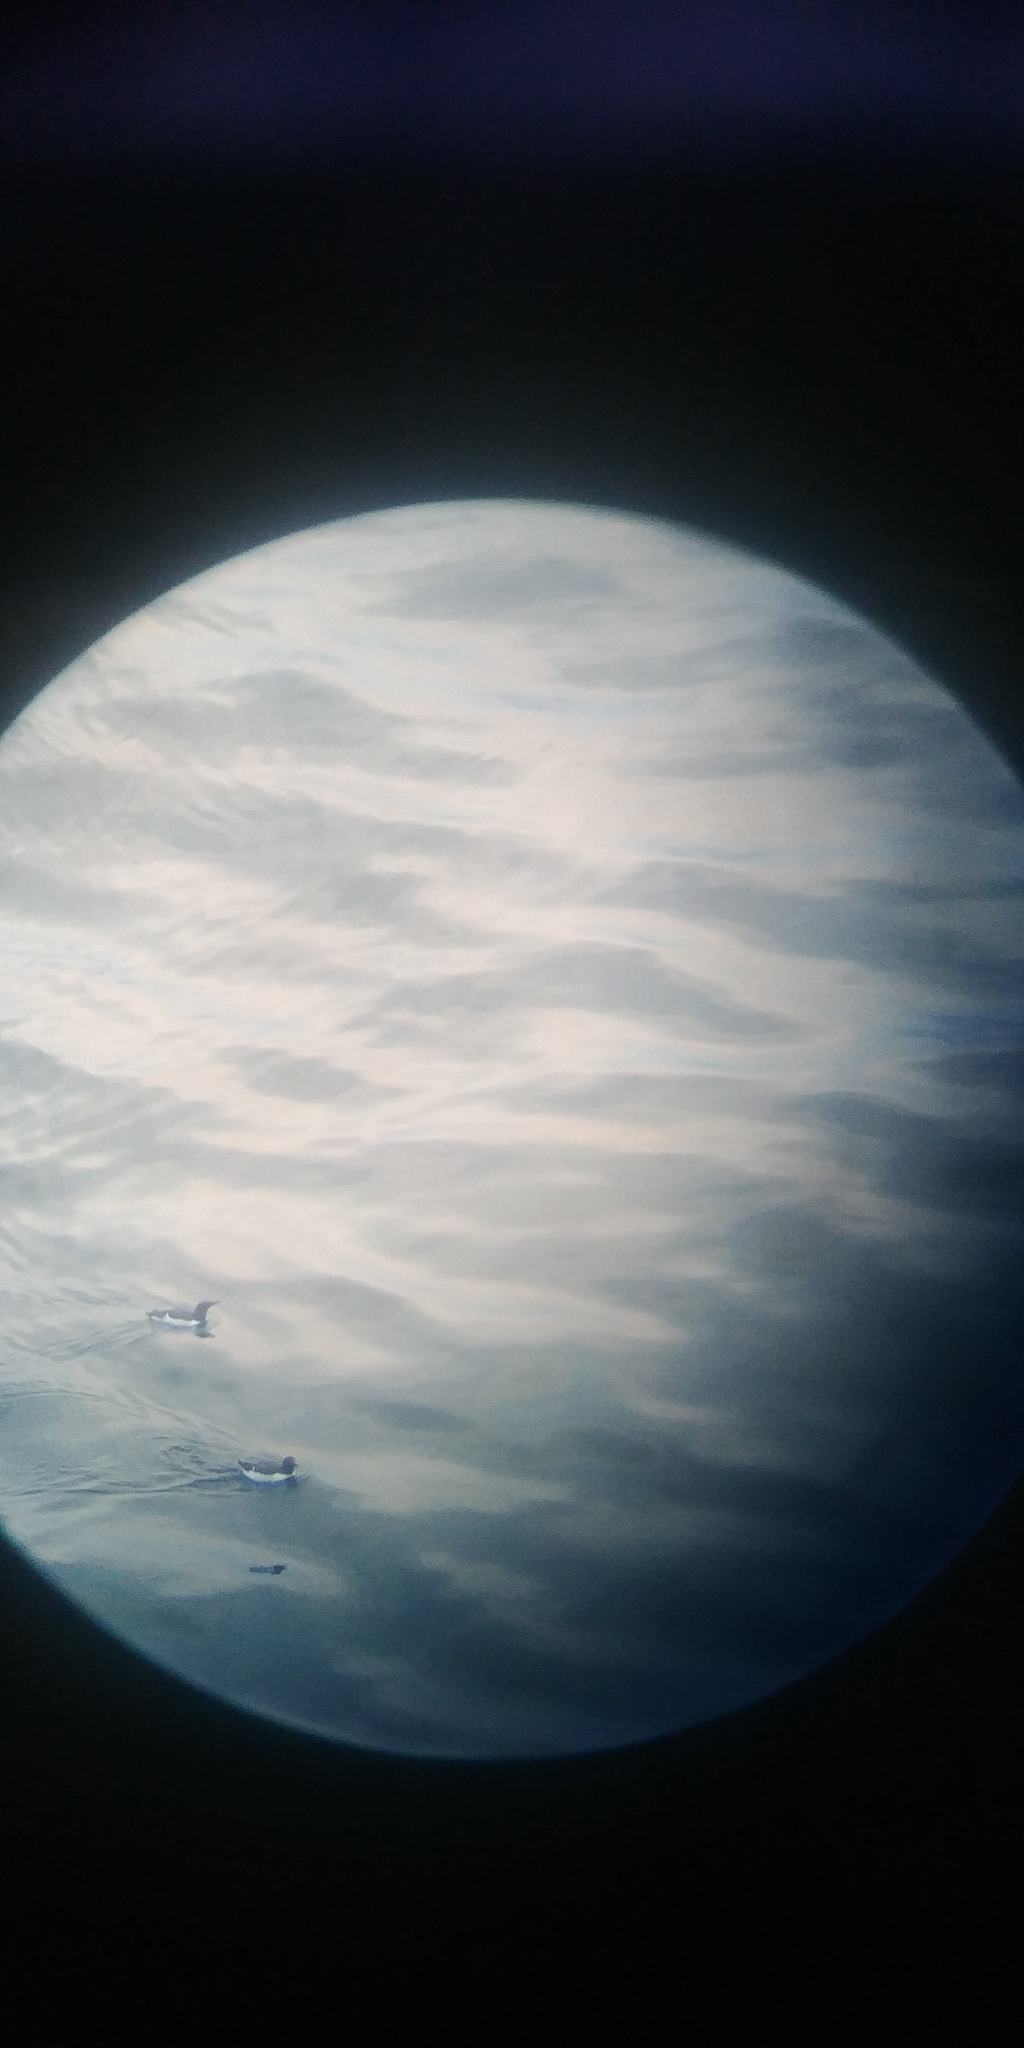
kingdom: Animalia
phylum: Chordata
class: Aves
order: Charadriiformes
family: Alcidae
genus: Uria
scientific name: Uria aalge
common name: Common murre
